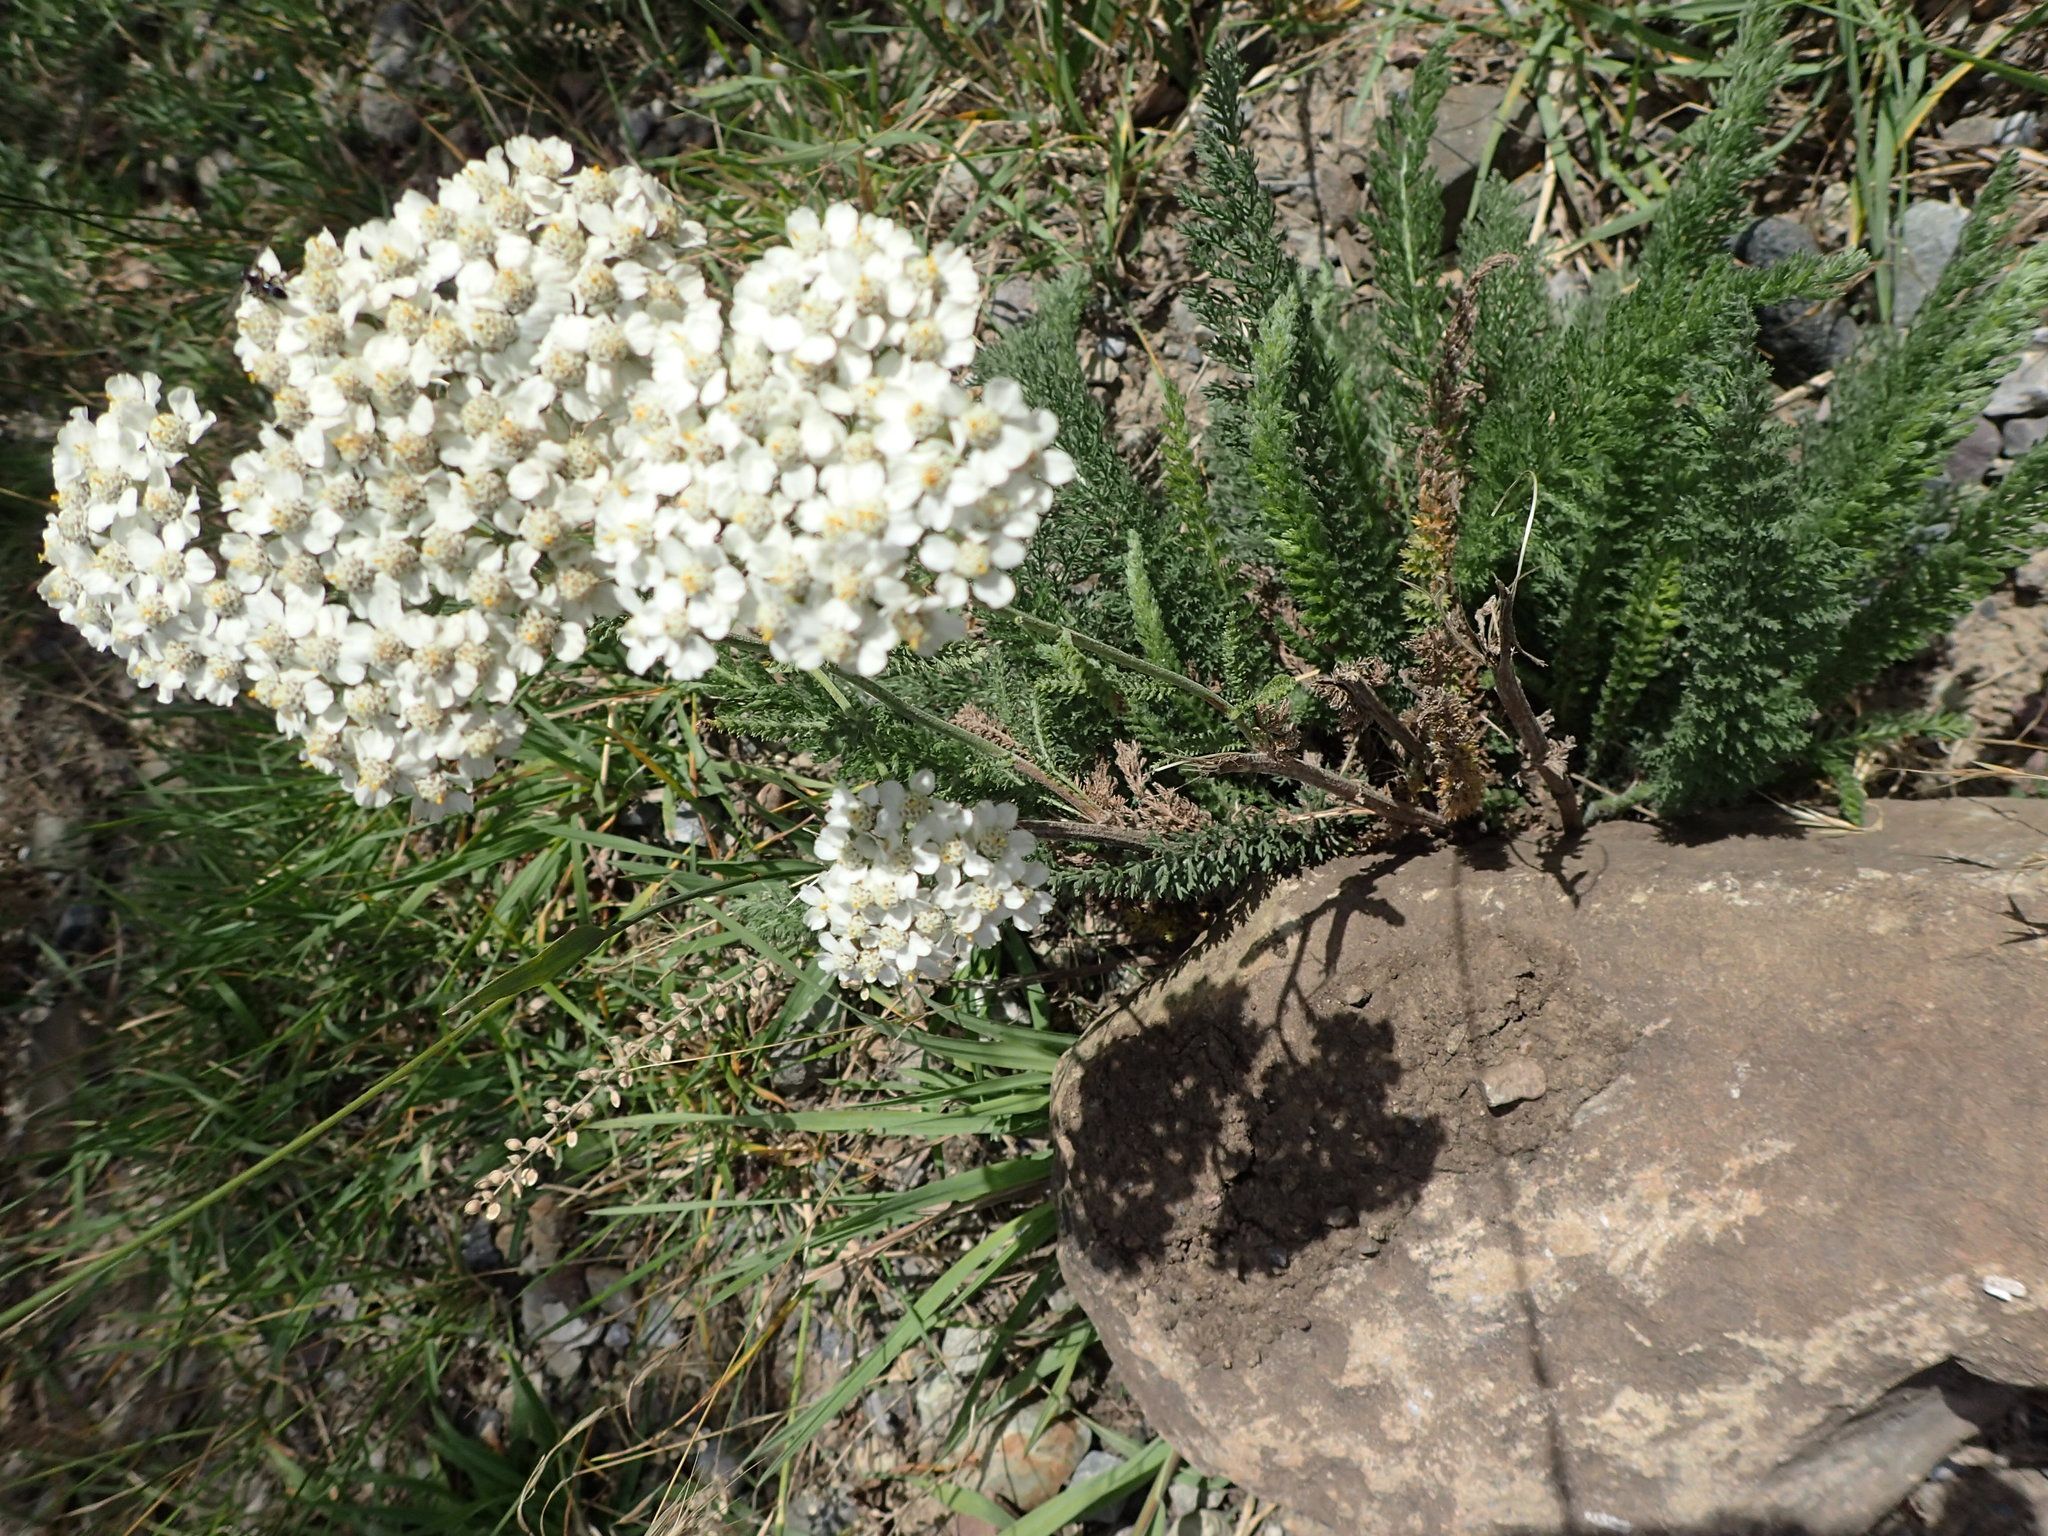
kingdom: Plantae
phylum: Tracheophyta
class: Magnoliopsida
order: Asterales
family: Asteraceae
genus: Achillea
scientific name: Achillea millefolium
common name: Yarrow
